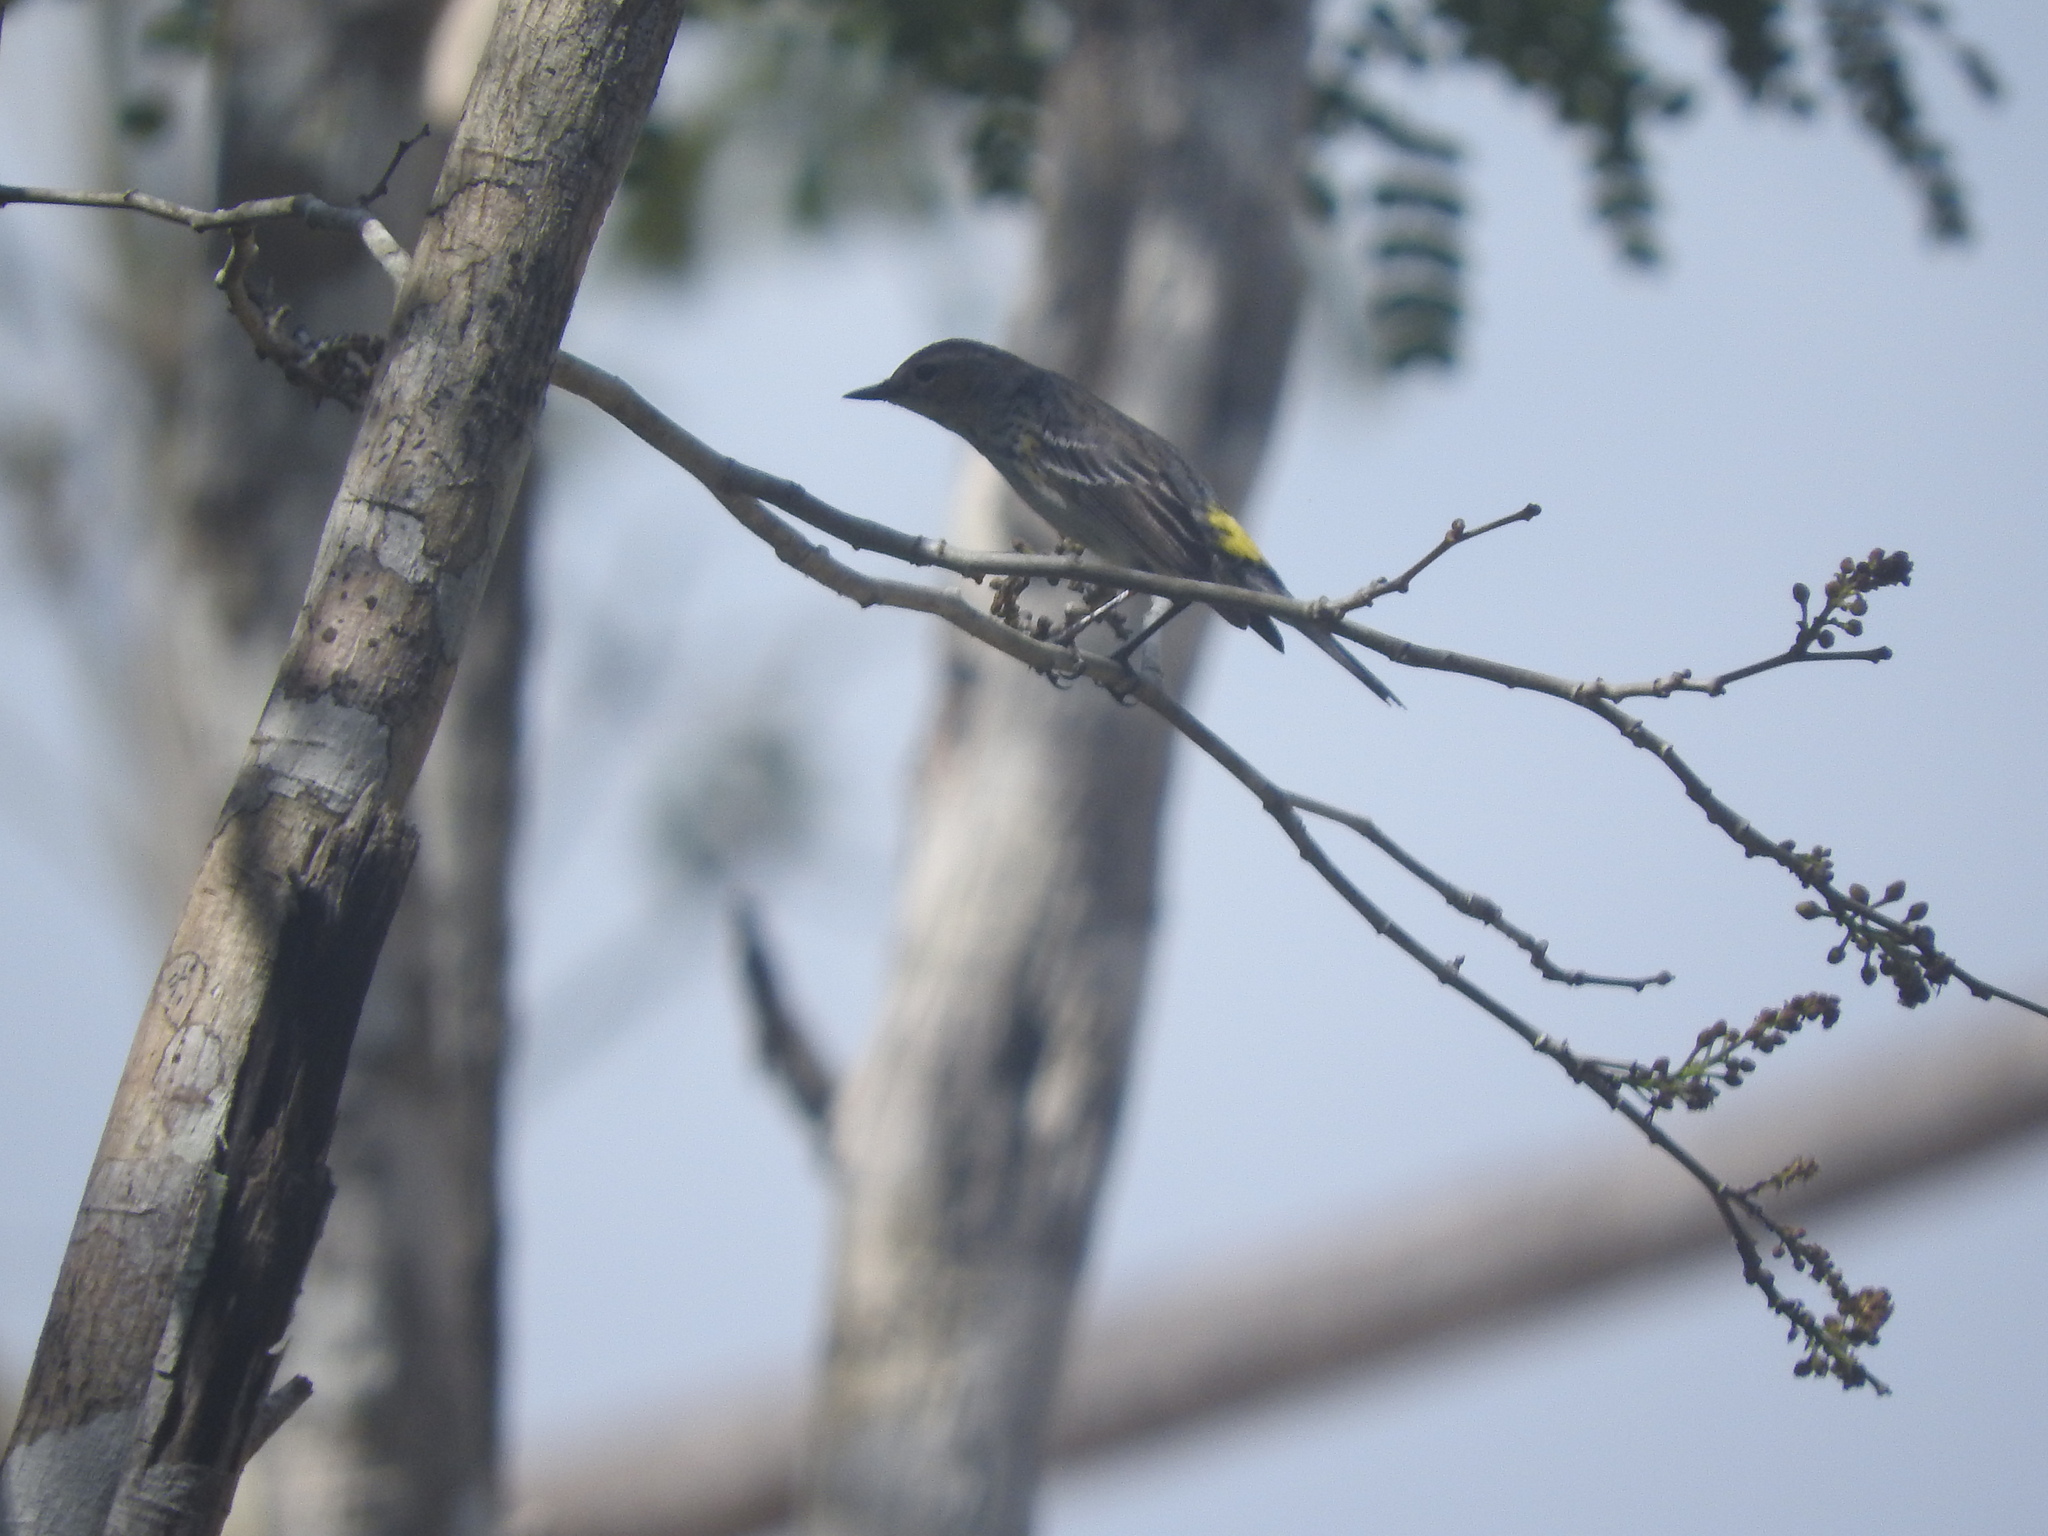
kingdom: Animalia
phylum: Chordata
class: Aves
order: Passeriformes
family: Parulidae
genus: Setophaga
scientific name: Setophaga coronata
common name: Myrtle warbler
